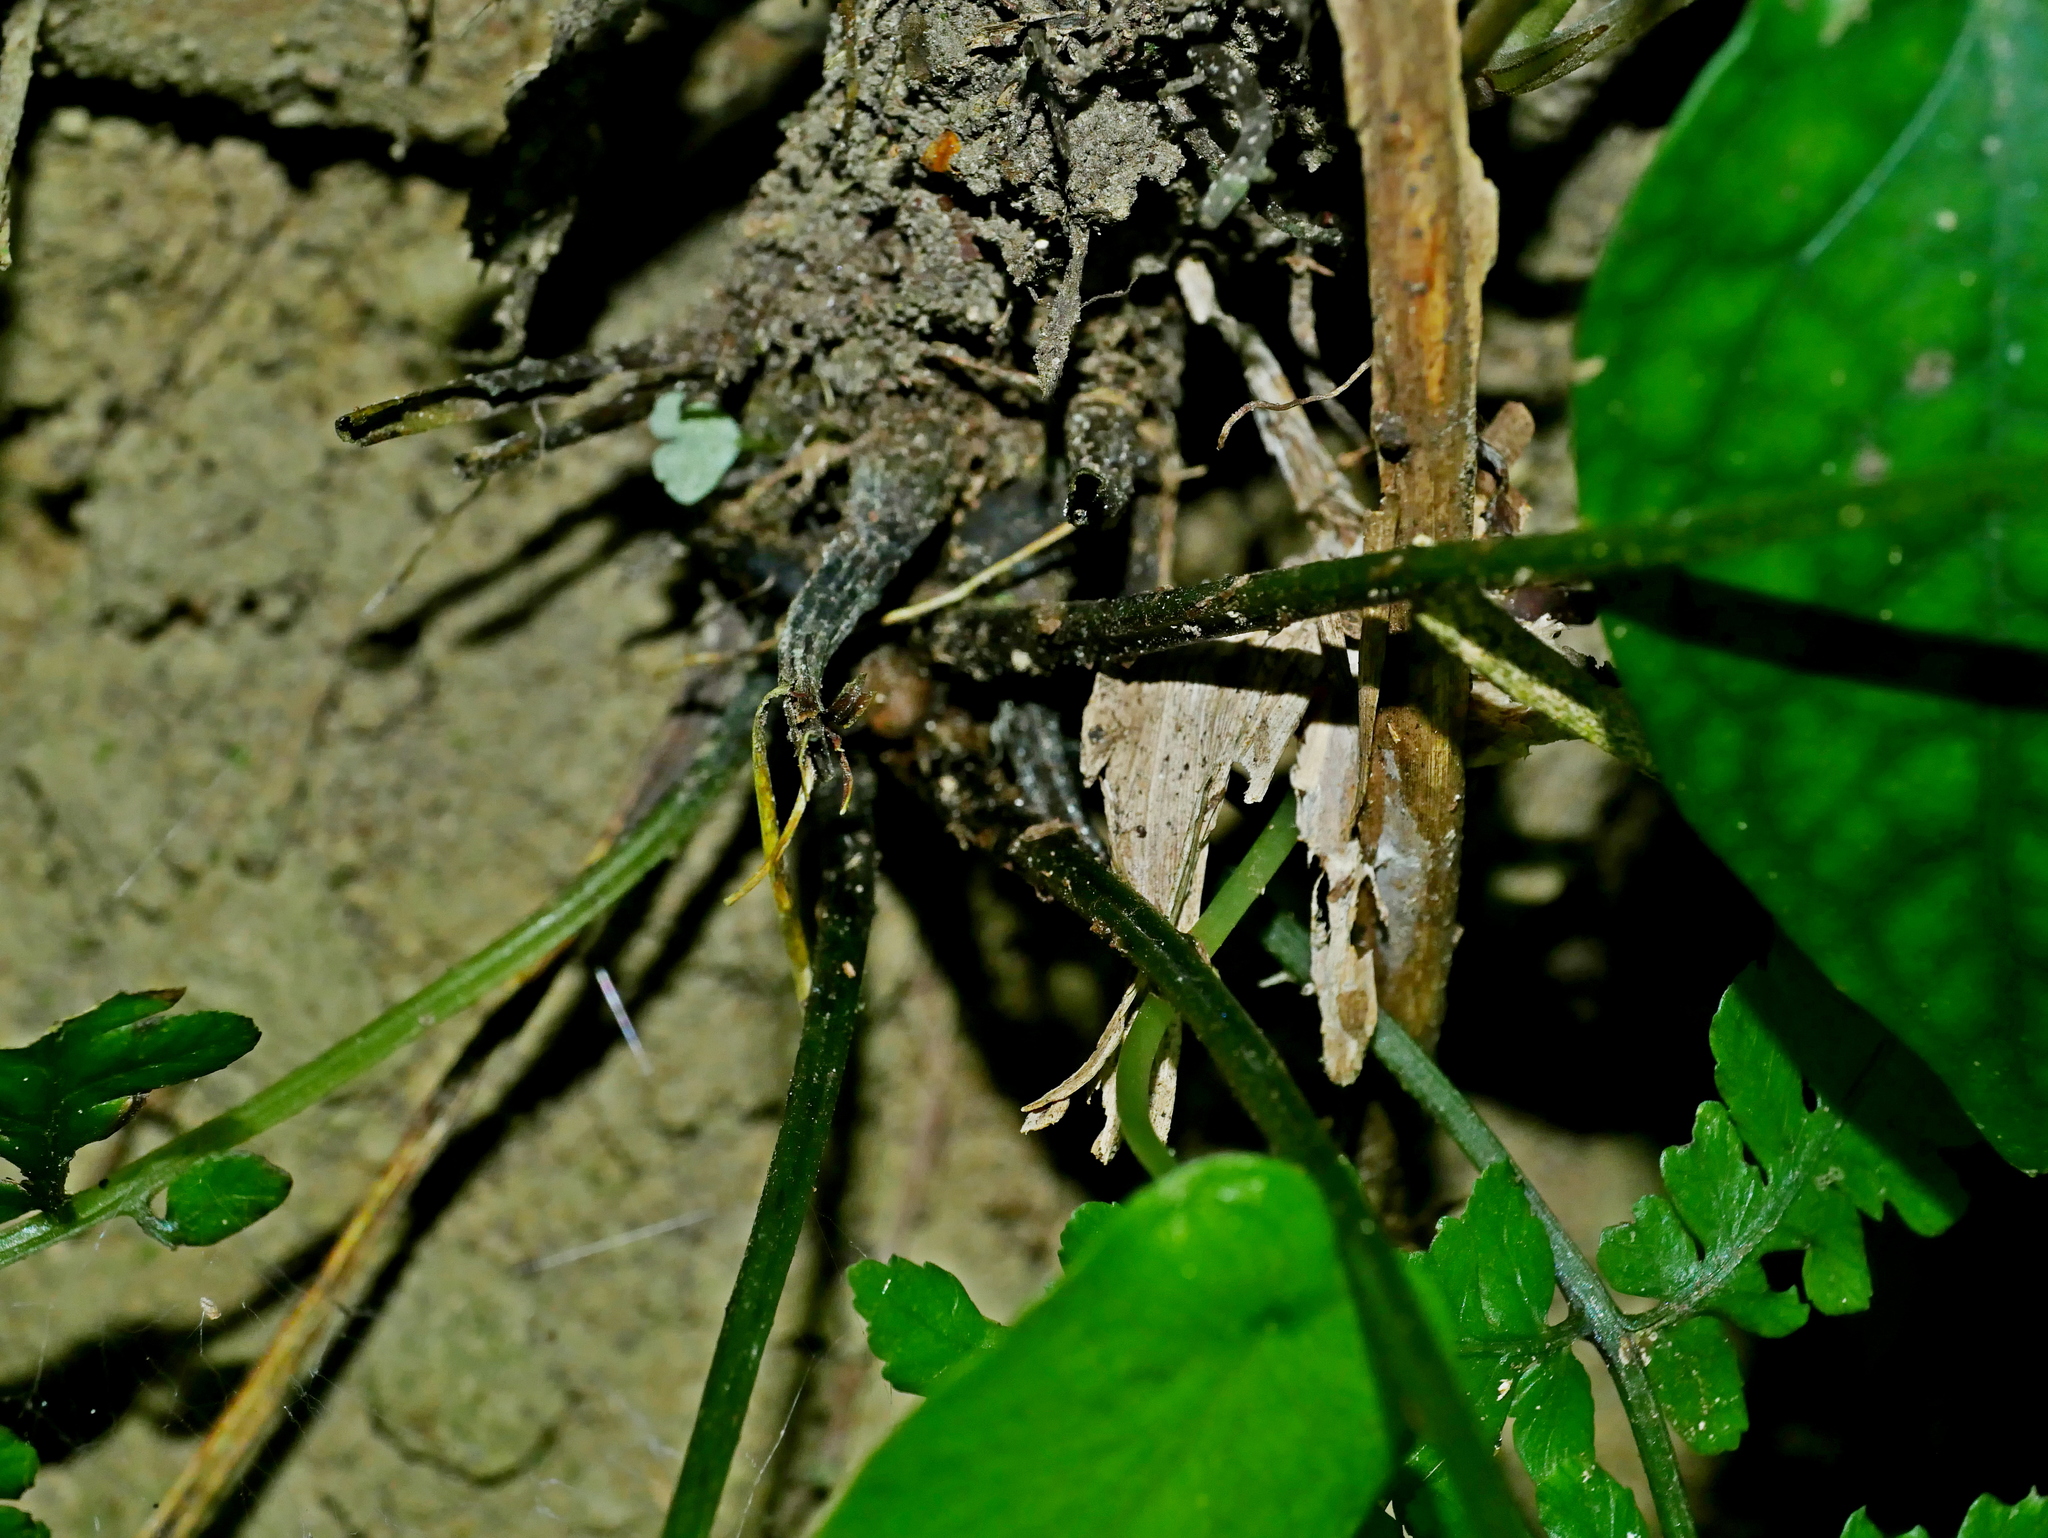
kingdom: Plantae
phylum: Tracheophyta
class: Polypodiopsida
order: Polypodiales
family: Athyriaceae
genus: Diplazium
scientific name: Diplazium laxifrons
